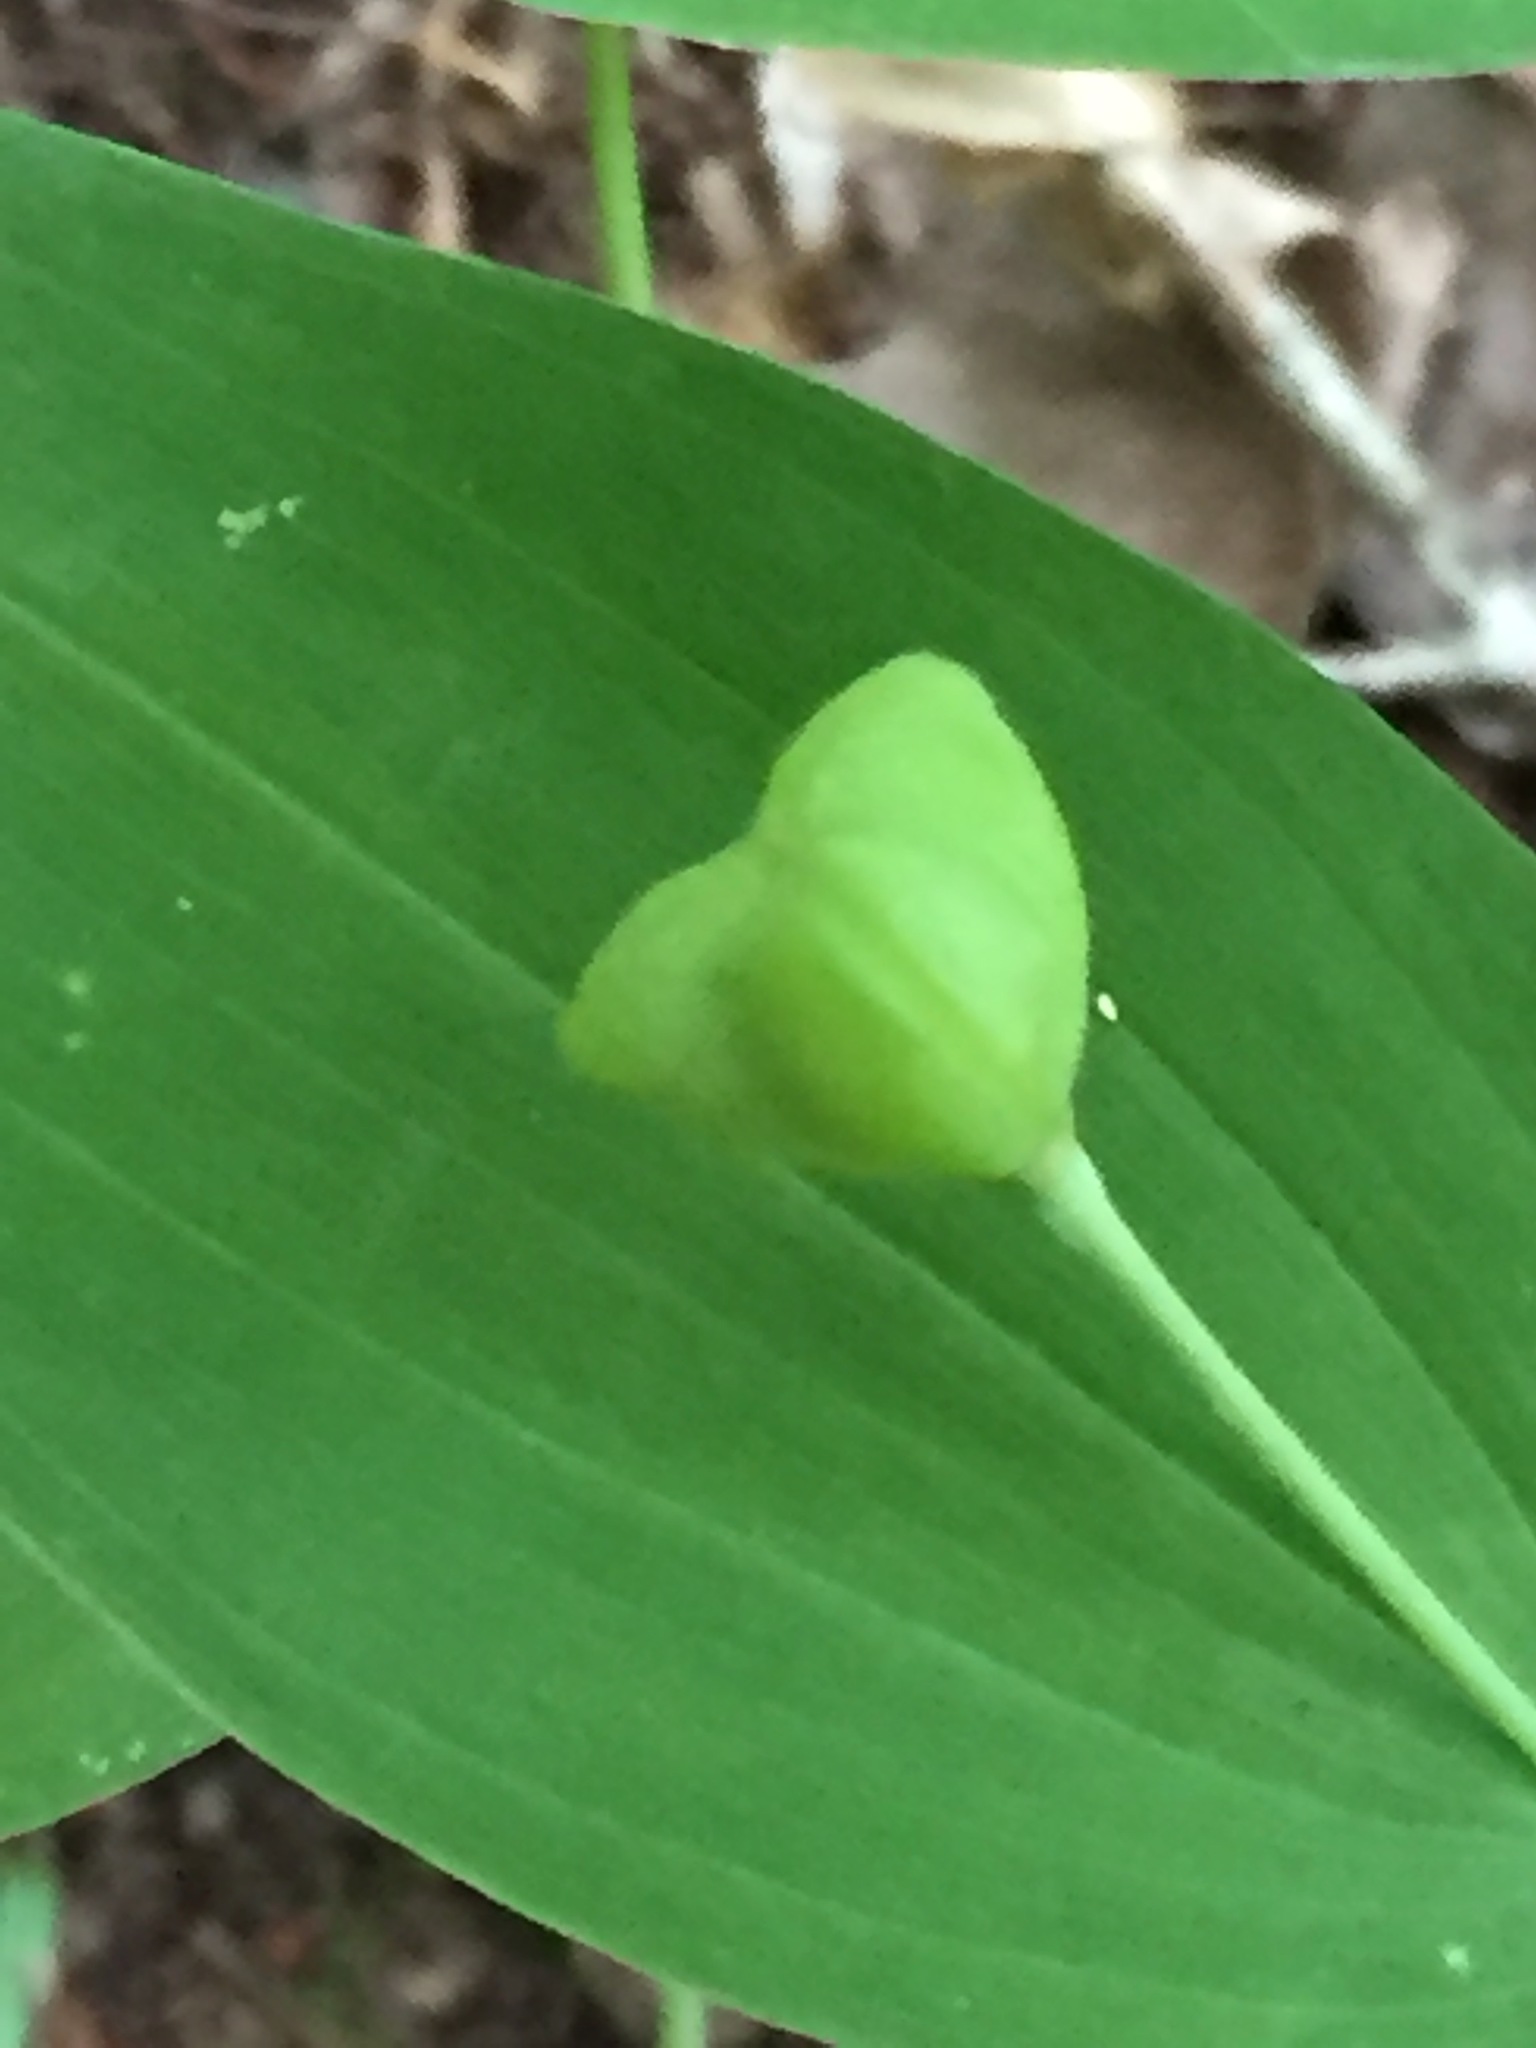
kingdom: Plantae
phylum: Tracheophyta
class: Liliopsida
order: Liliales
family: Colchicaceae
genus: Uvularia
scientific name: Uvularia grandiflora
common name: Bellwort
